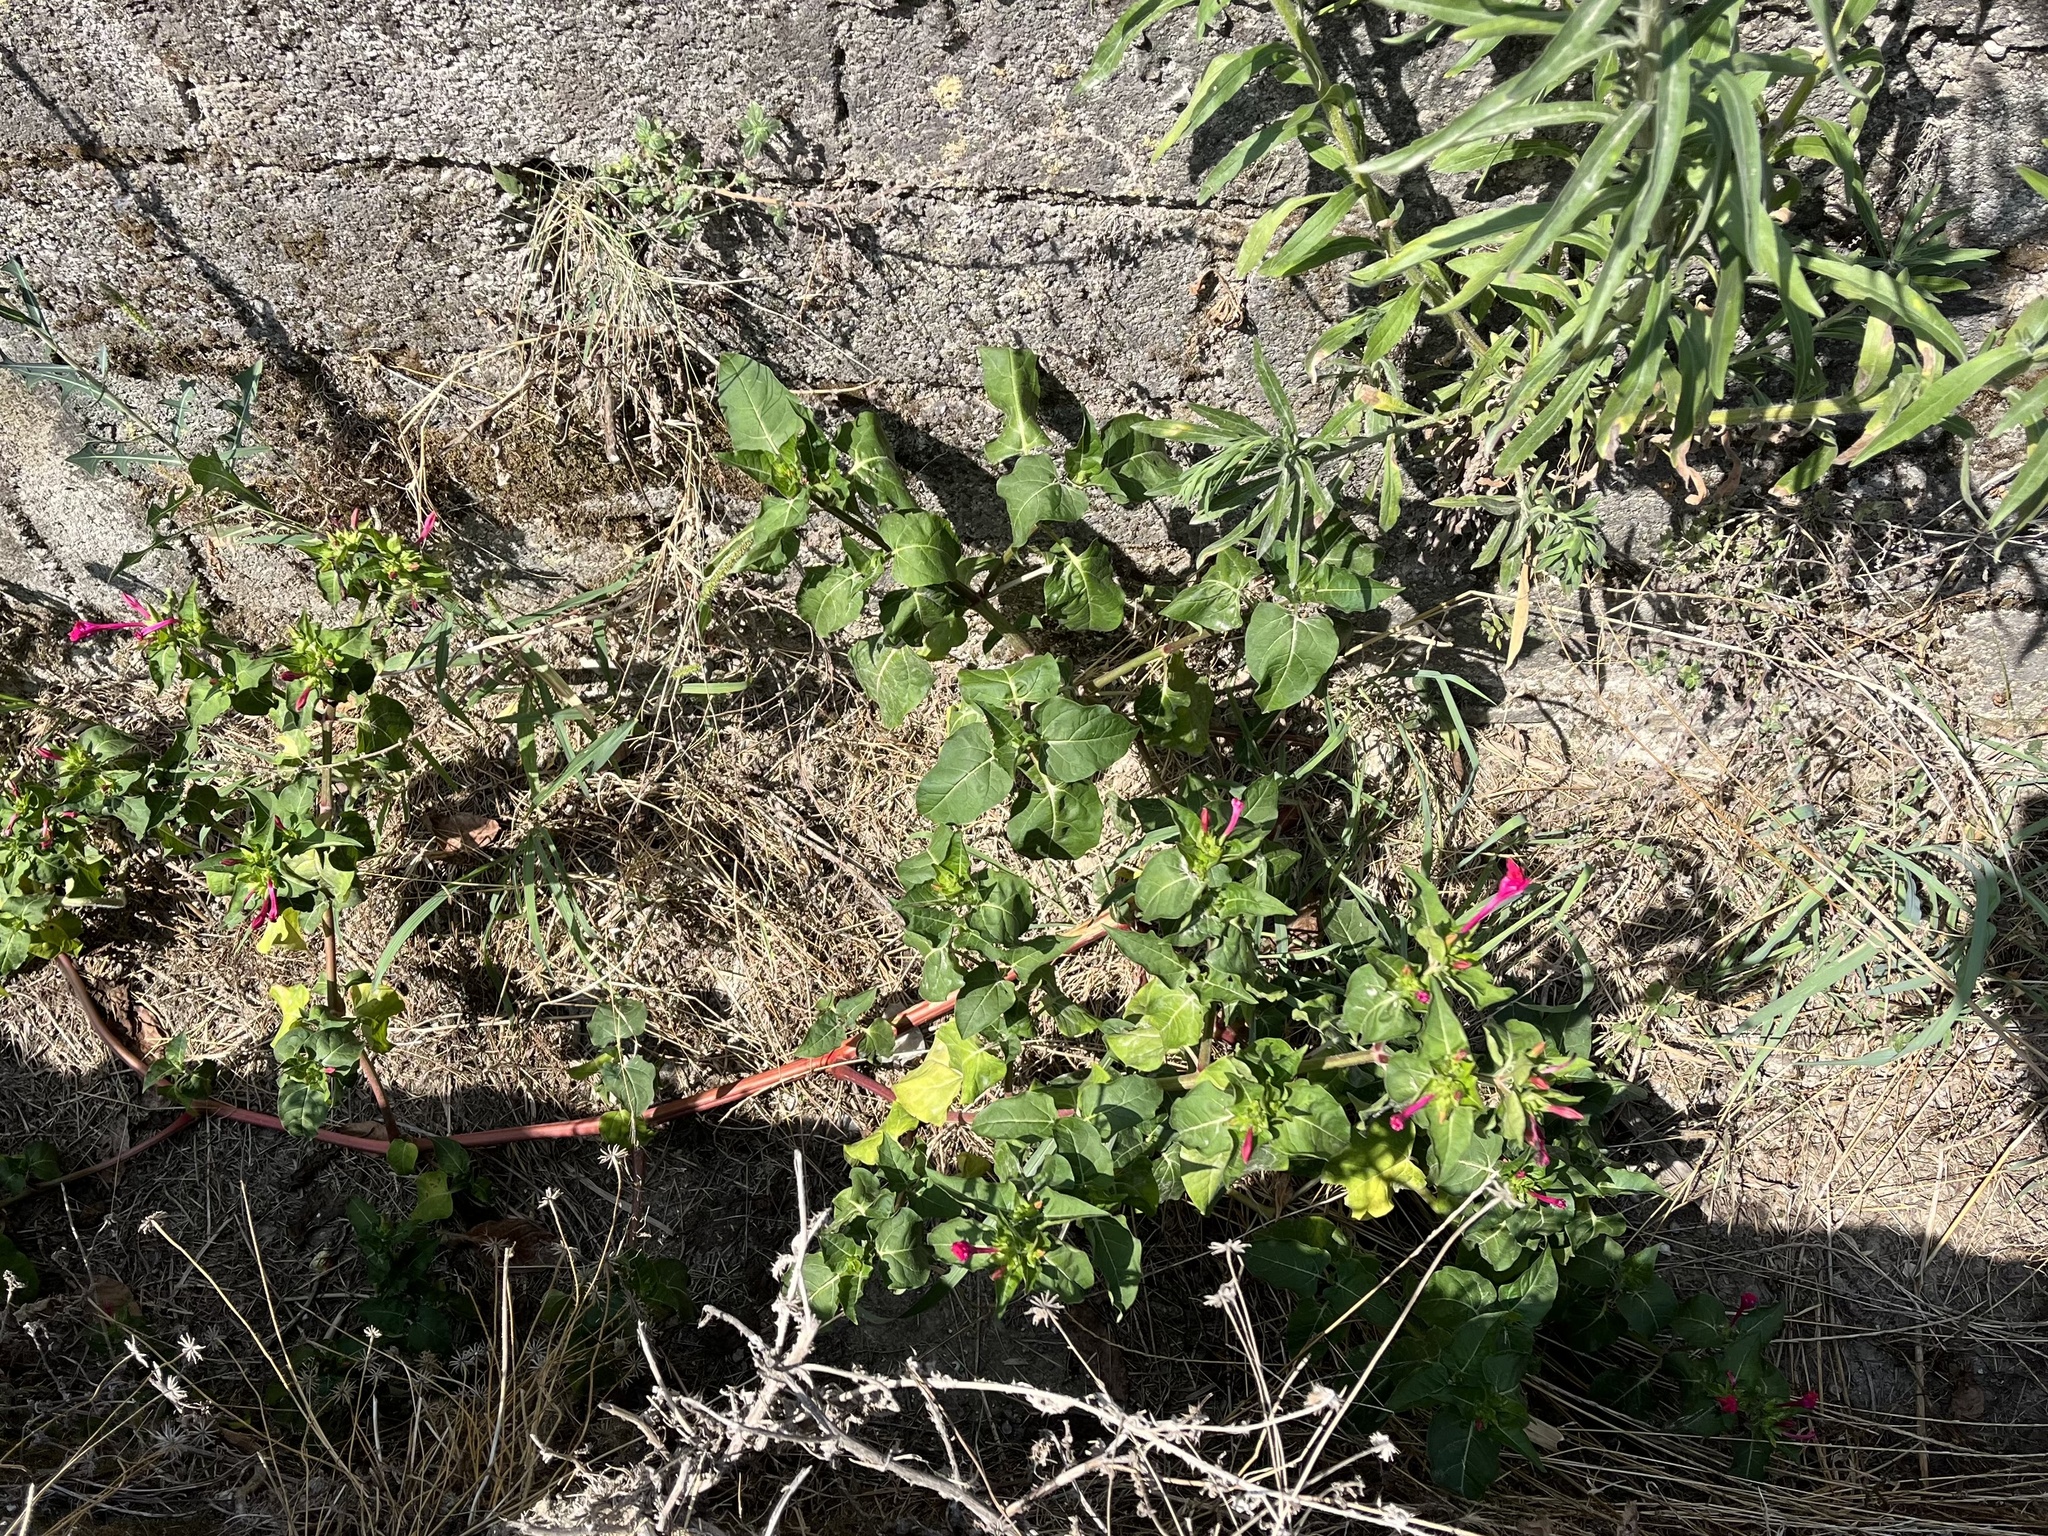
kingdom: Plantae
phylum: Tracheophyta
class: Magnoliopsida
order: Caryophyllales
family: Nyctaginaceae
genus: Mirabilis
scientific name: Mirabilis jalapa
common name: Marvel-of-peru
